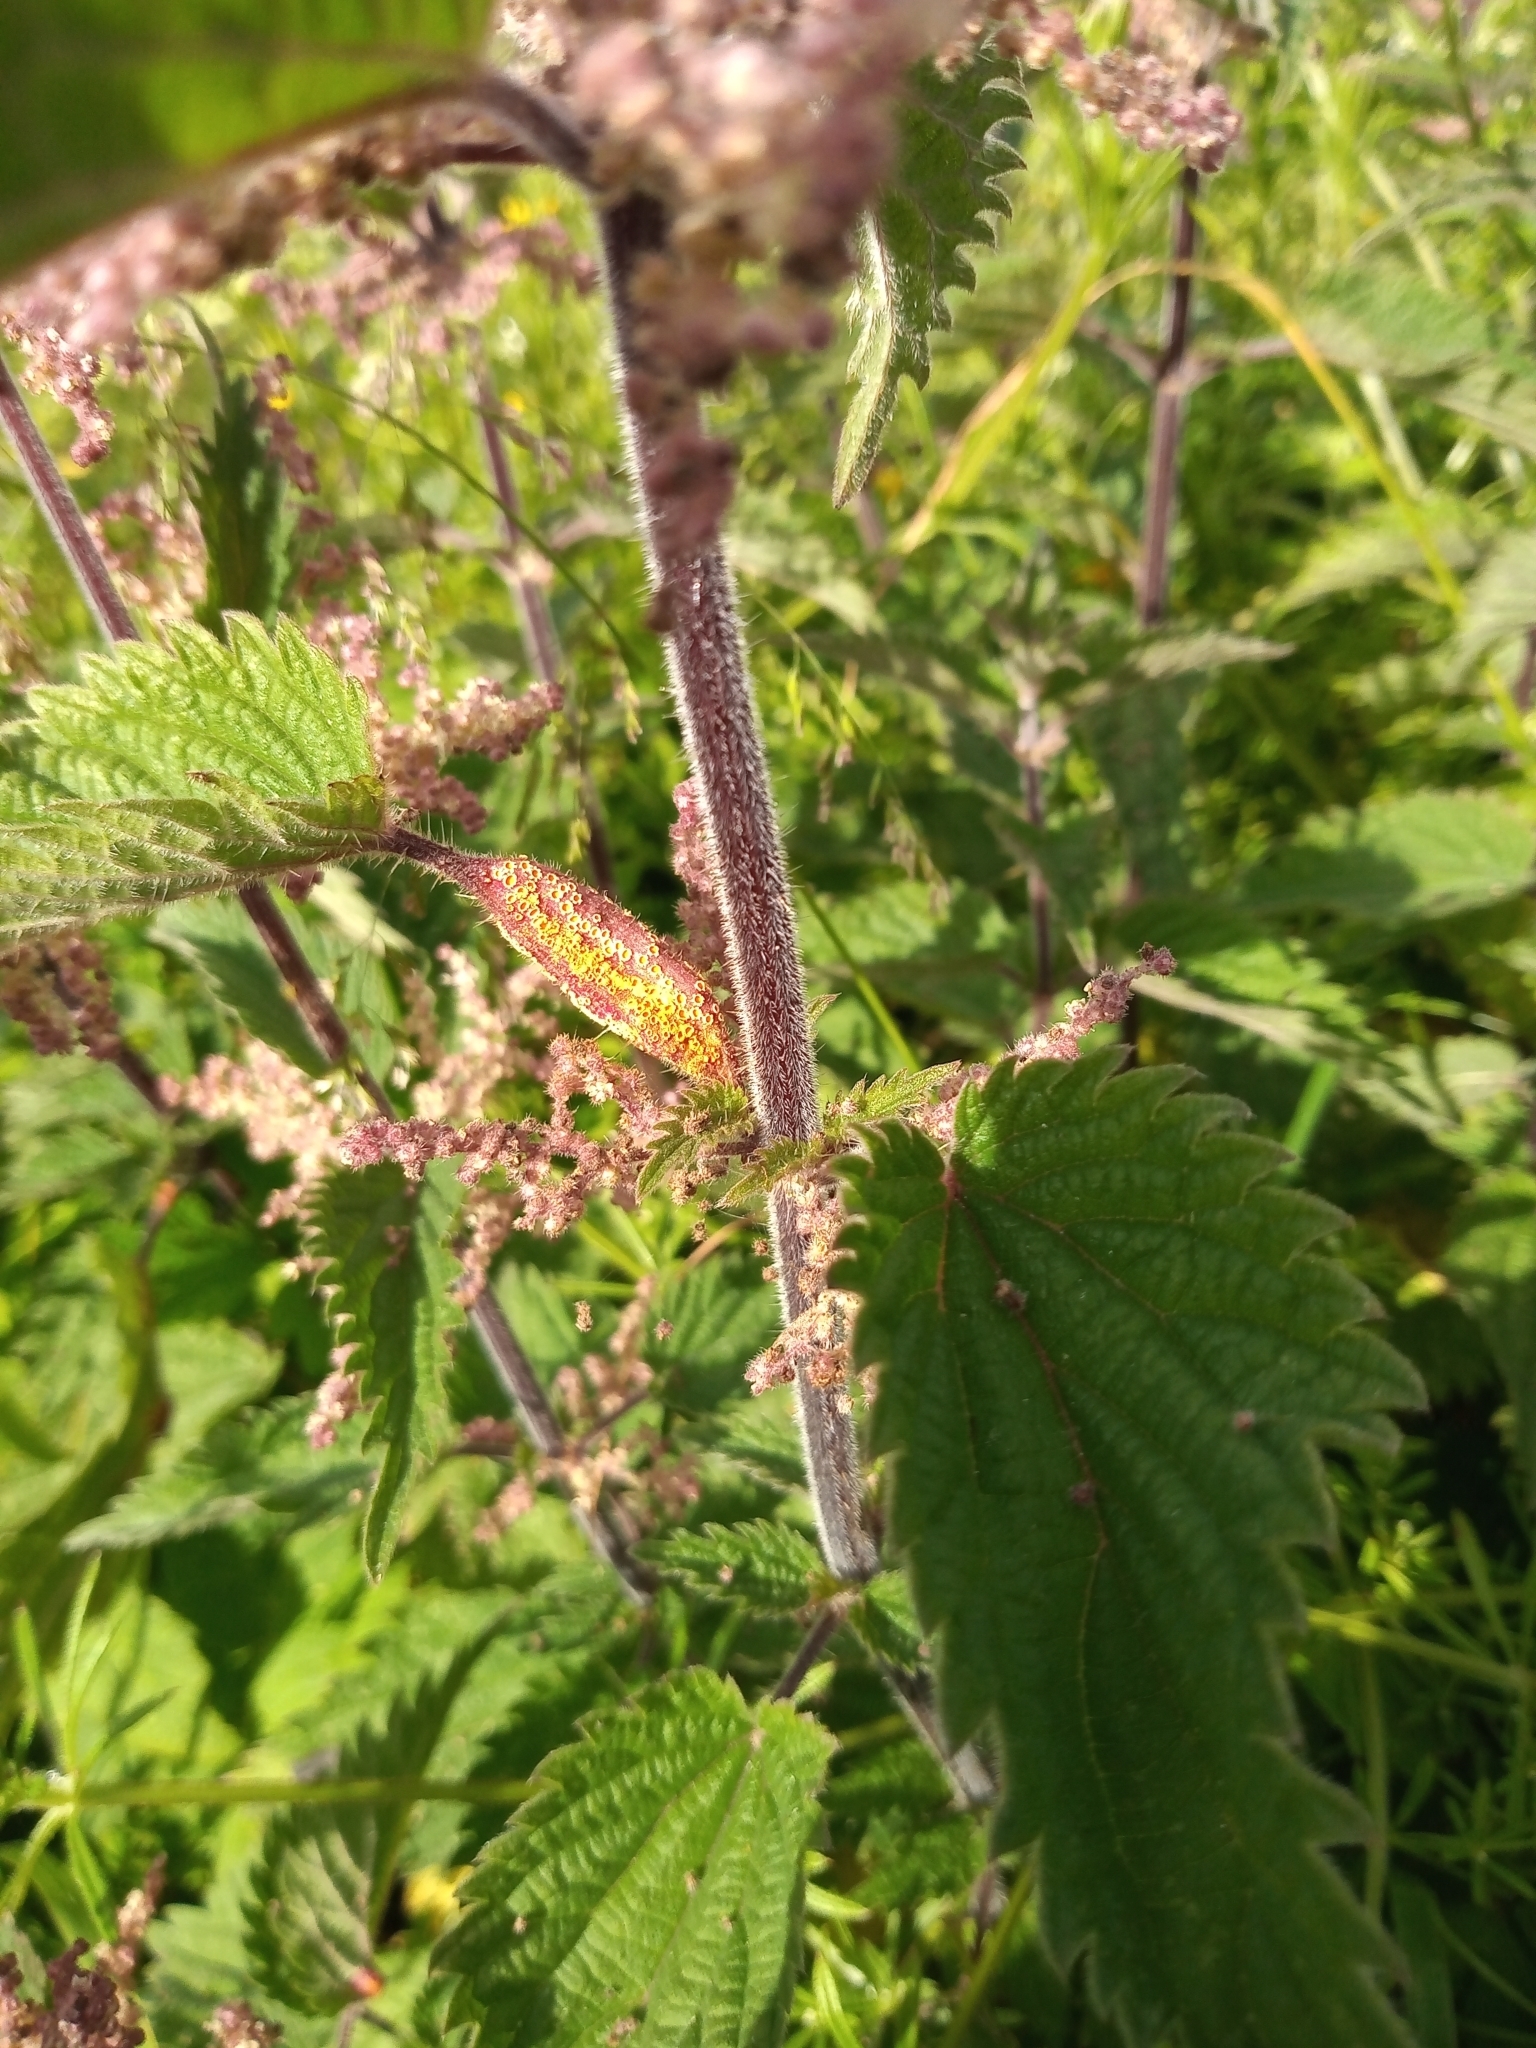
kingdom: Fungi
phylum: Basidiomycota
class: Pucciniomycetes
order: Pucciniales
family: Pucciniaceae
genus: Puccinia
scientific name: Puccinia urticata
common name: Nettle clustercup rust fungus
